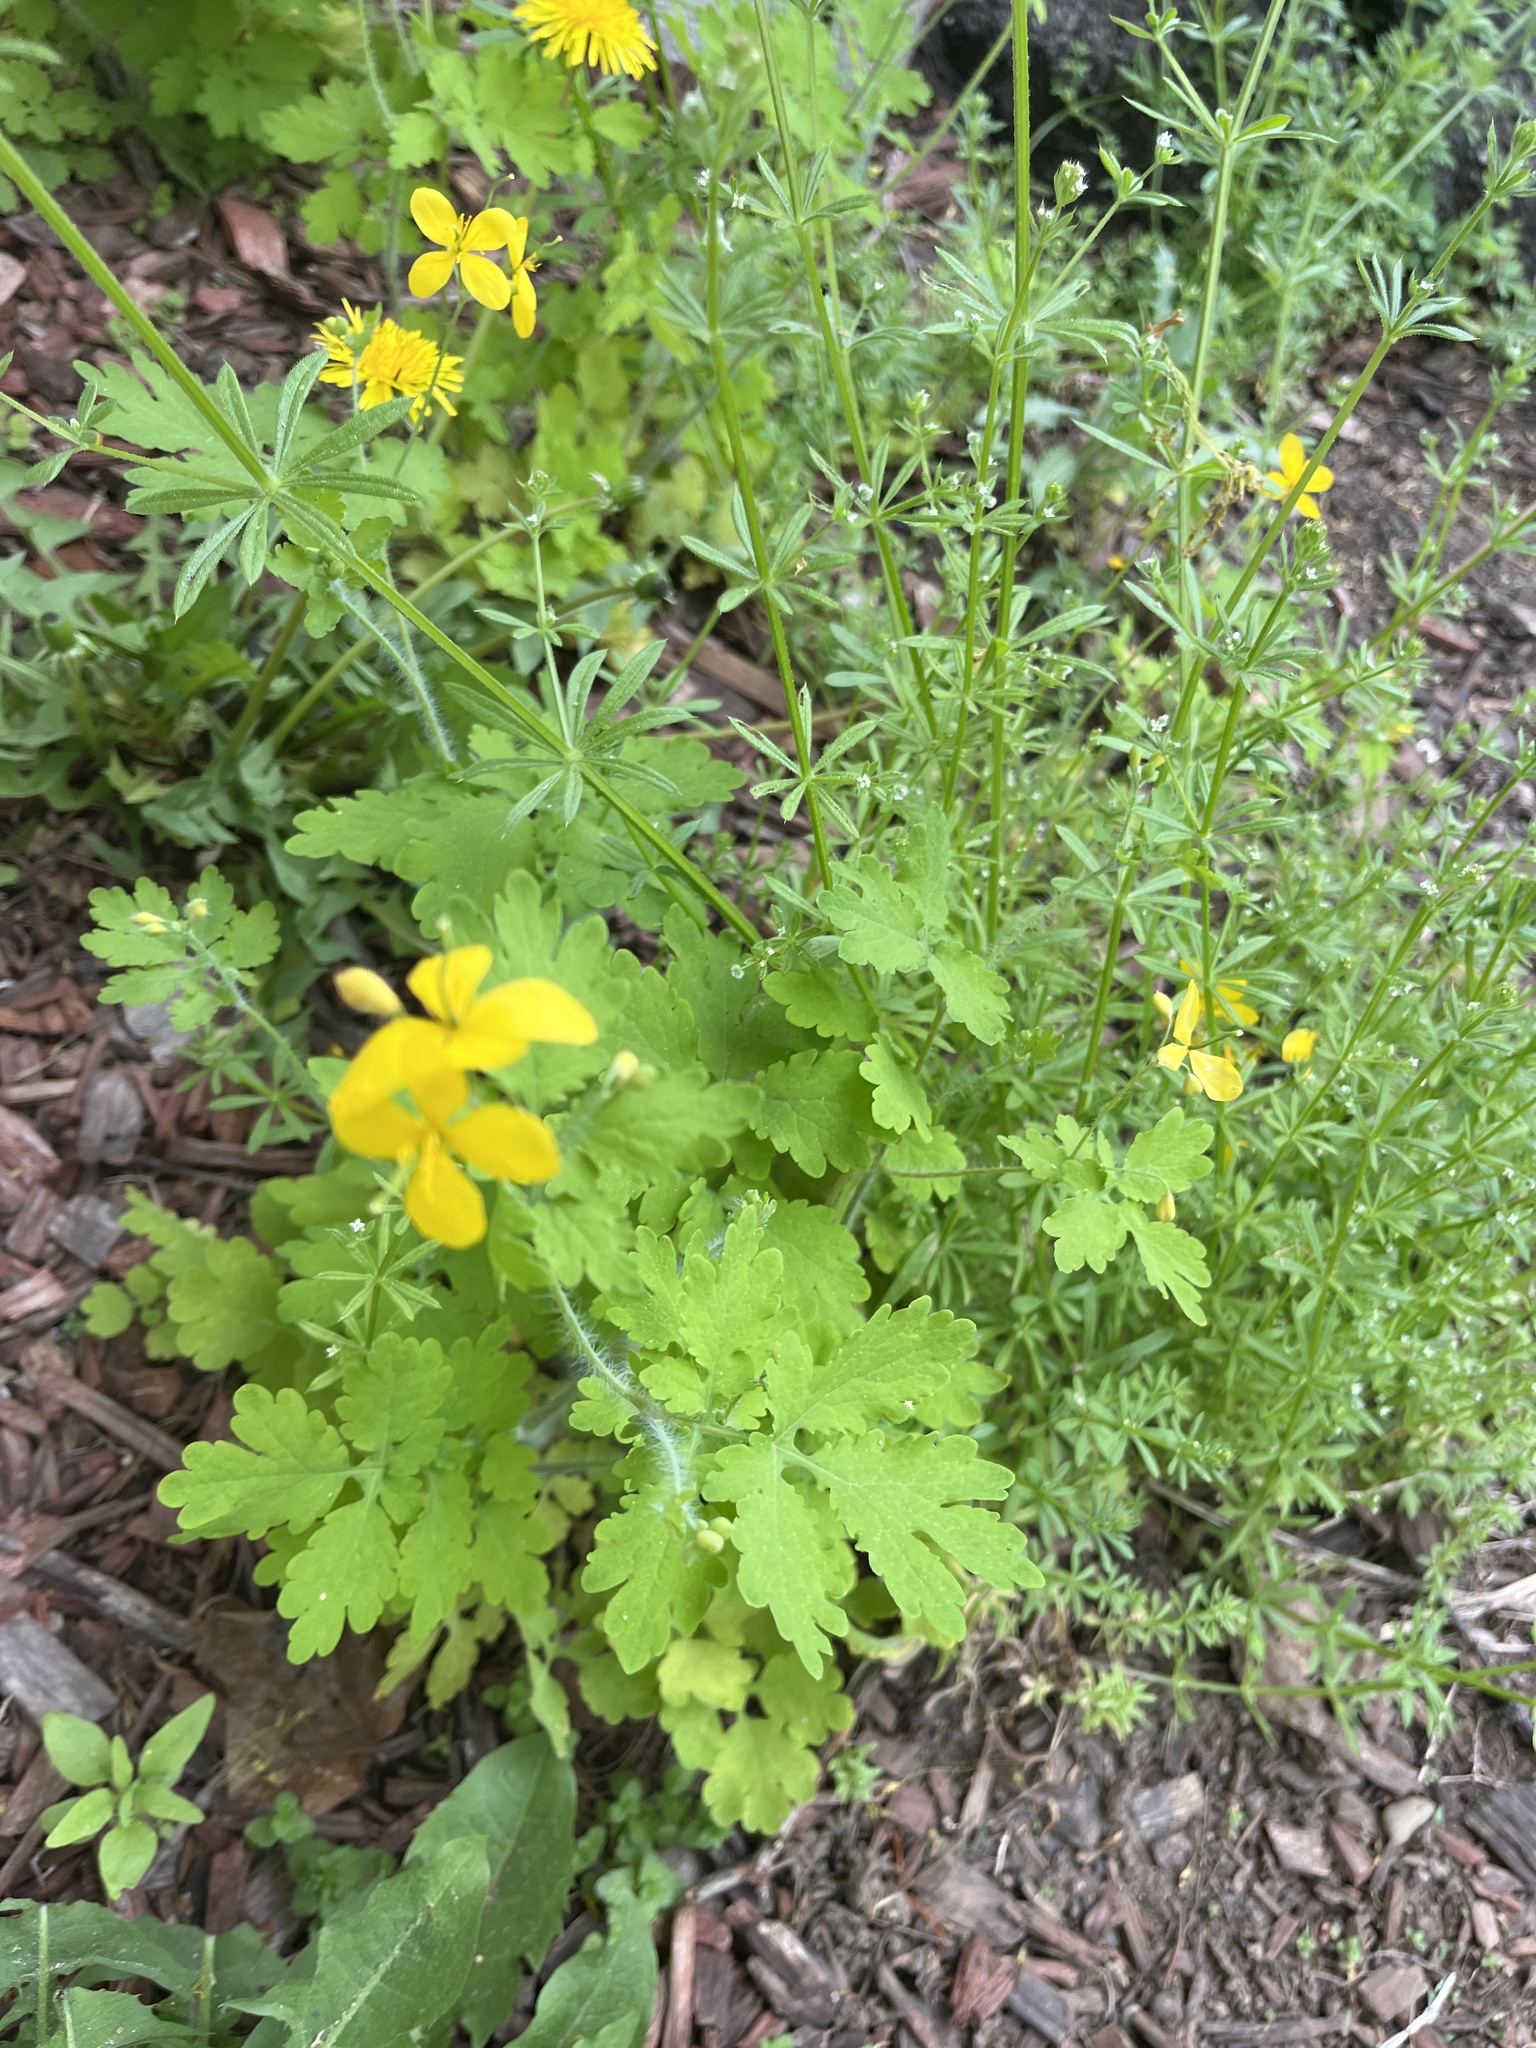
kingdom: Plantae
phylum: Tracheophyta
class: Magnoliopsida
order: Ranunculales
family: Papaveraceae
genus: Chelidonium
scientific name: Chelidonium majus
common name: Greater celandine
